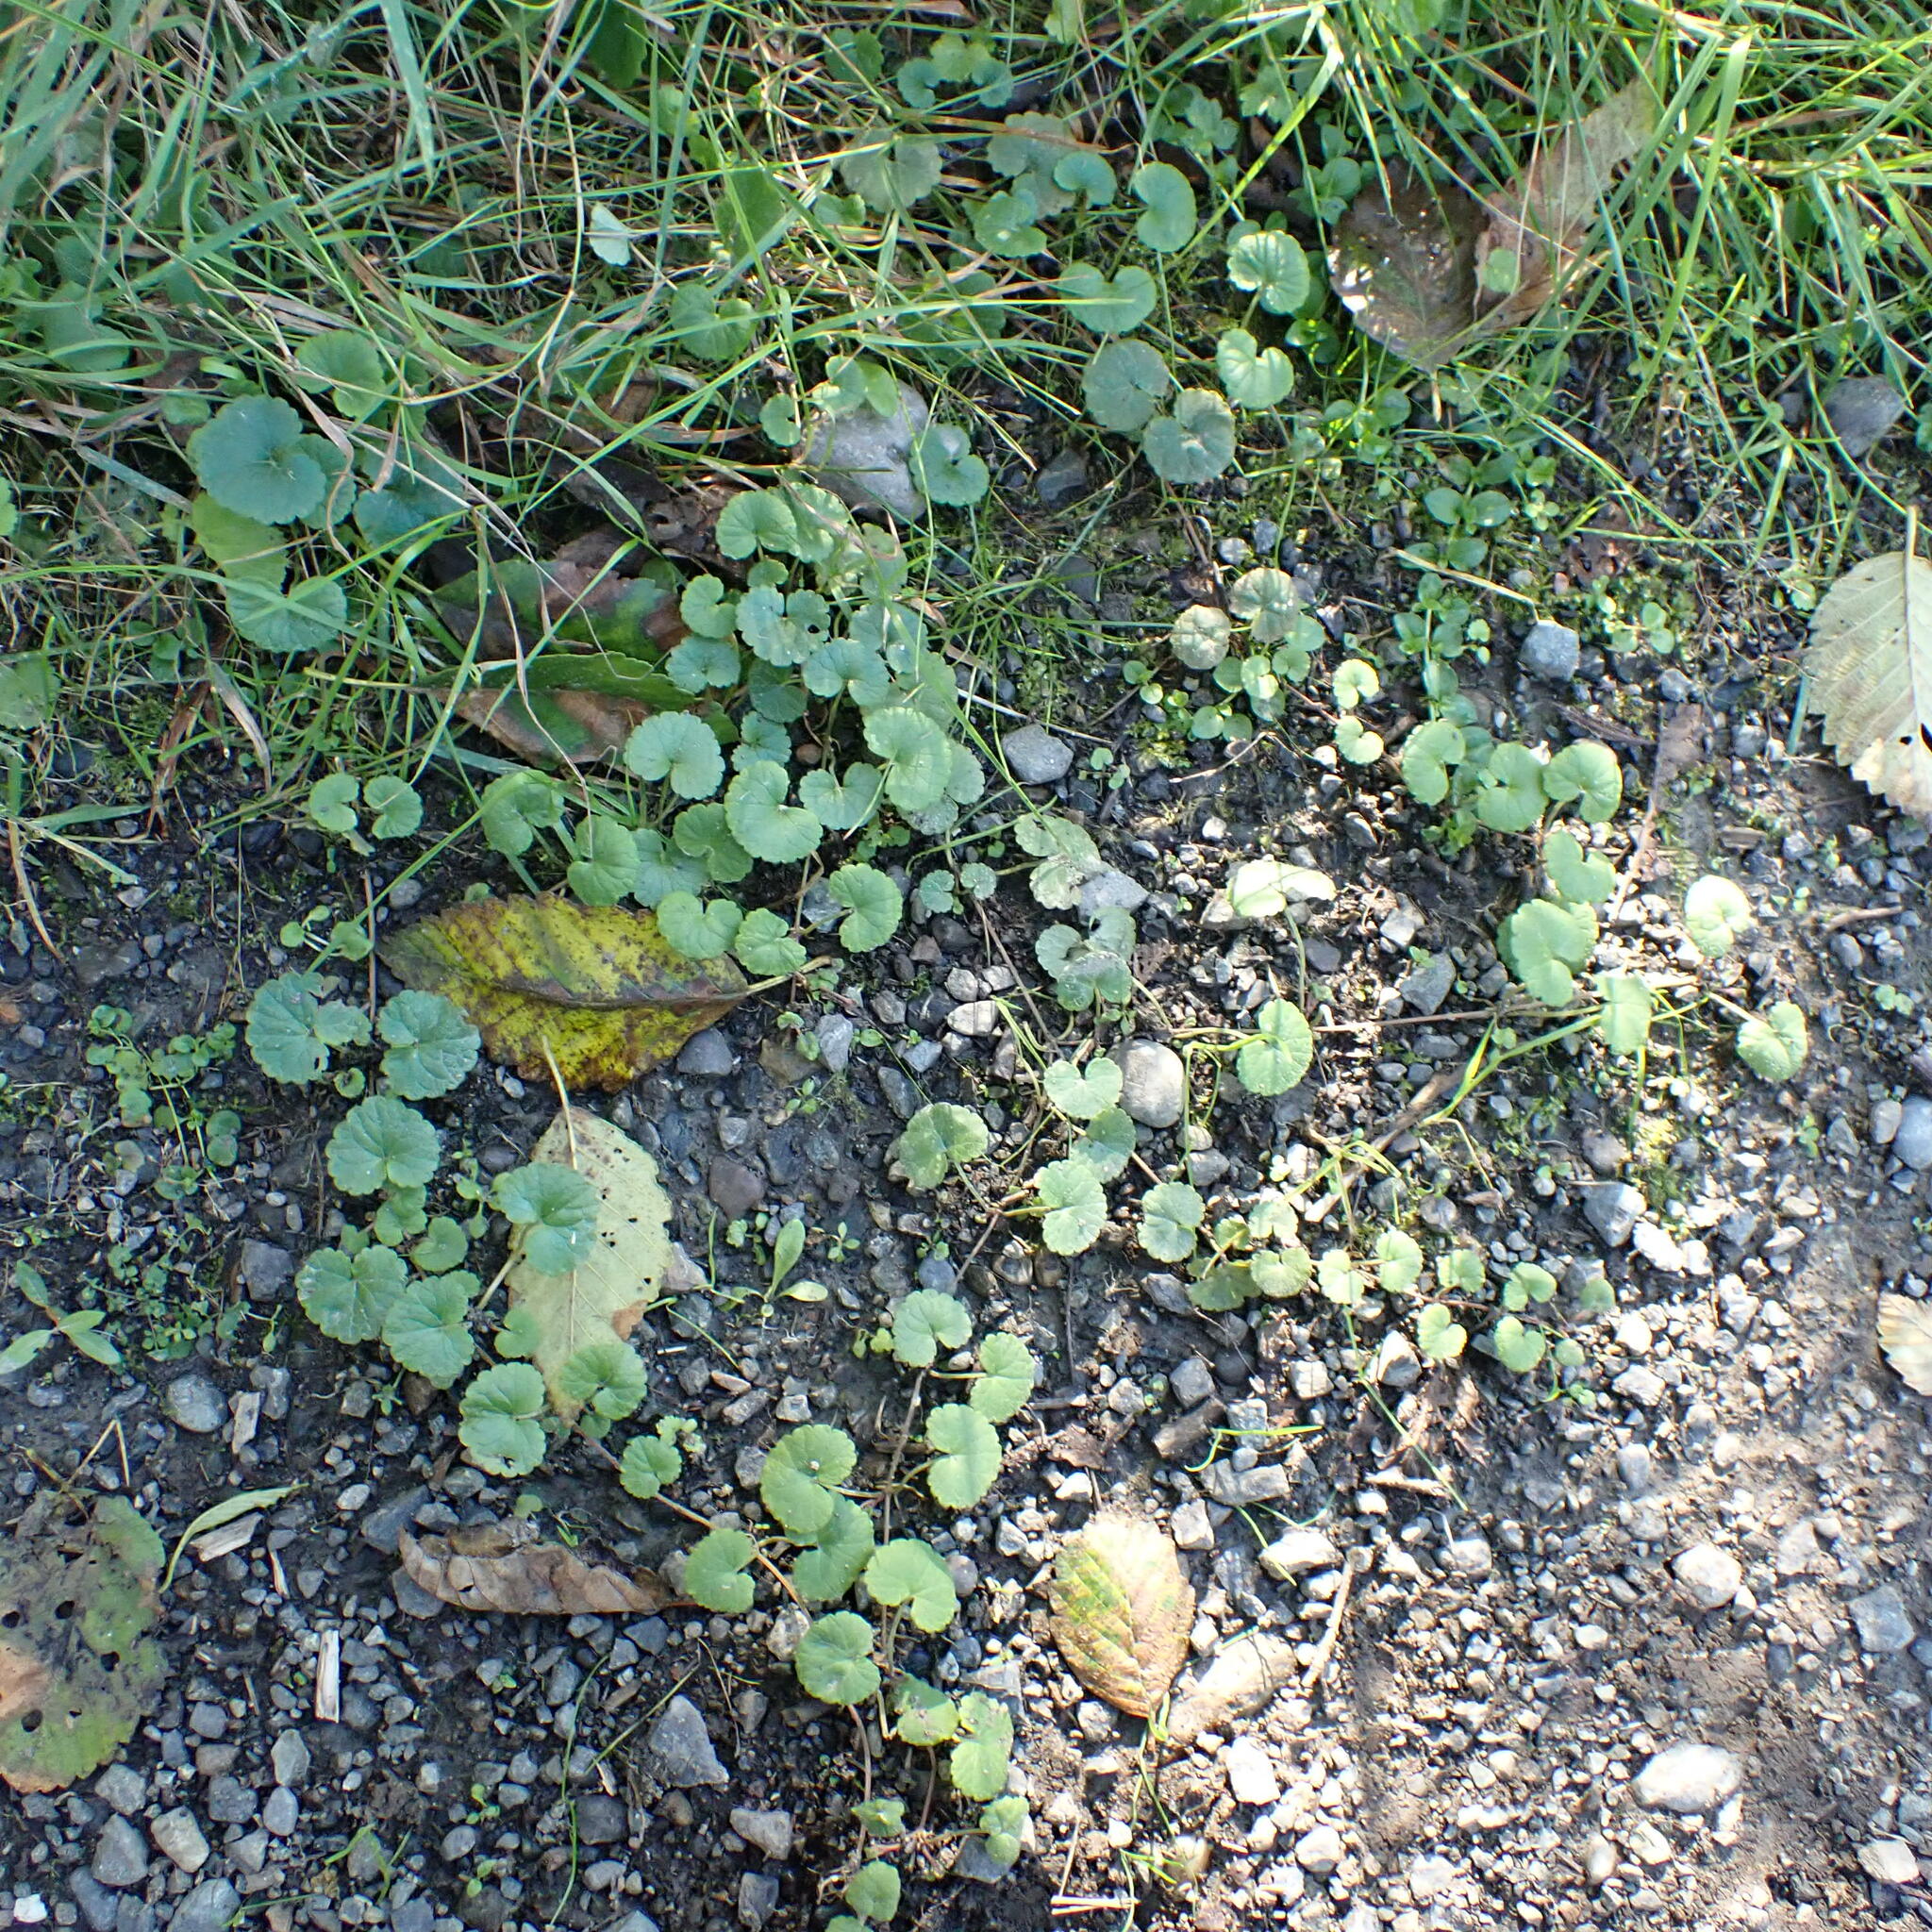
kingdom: Plantae
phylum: Tracheophyta
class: Magnoliopsida
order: Lamiales
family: Lamiaceae
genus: Glechoma
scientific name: Glechoma hederacea
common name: Ground ivy
